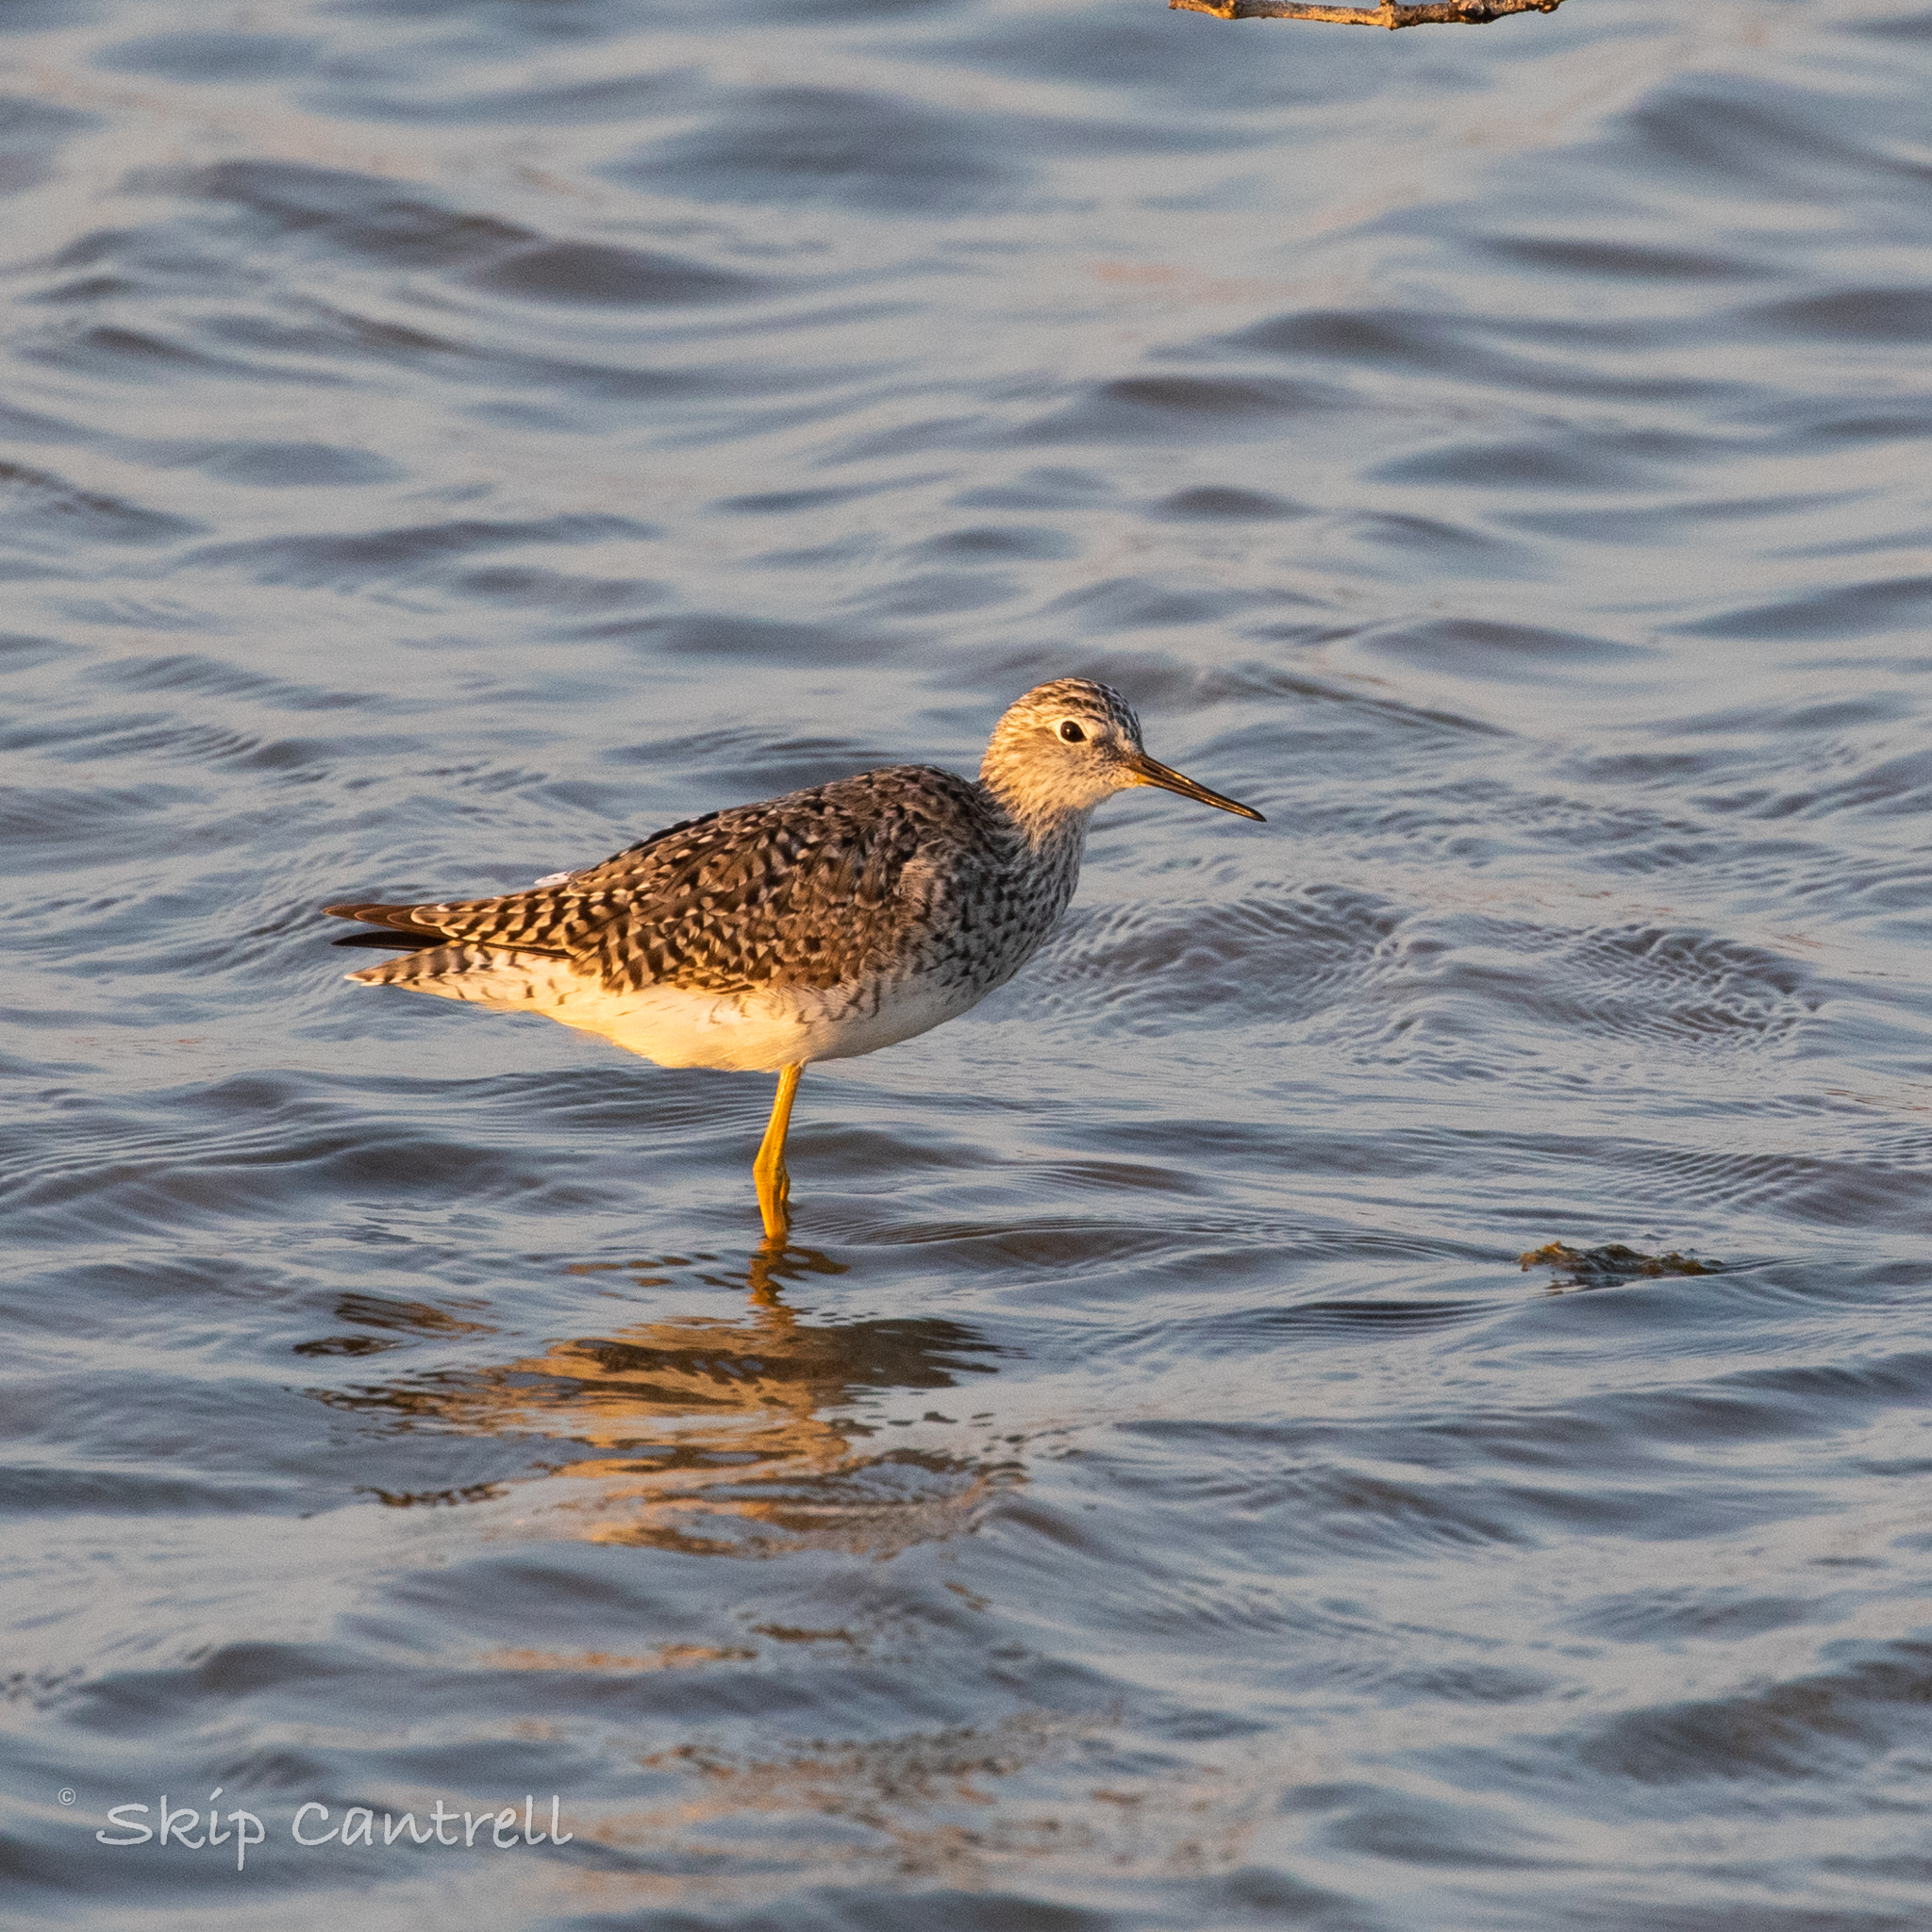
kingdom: Animalia
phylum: Chordata
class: Aves
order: Charadriiformes
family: Scolopacidae
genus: Tringa
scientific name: Tringa flavipes
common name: Lesser yellowlegs
